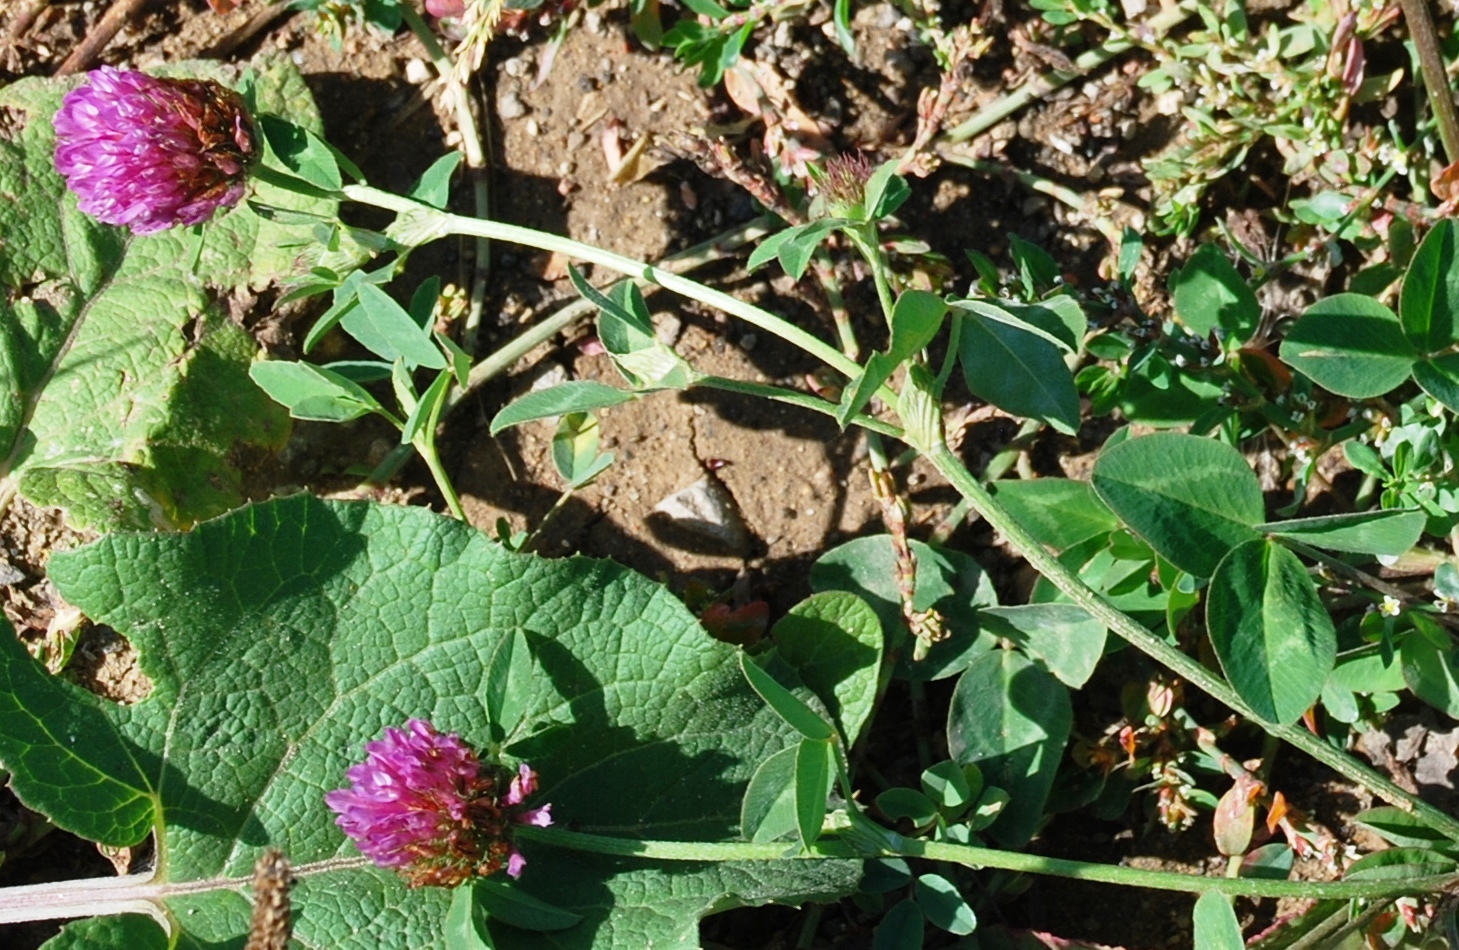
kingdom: Plantae
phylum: Tracheophyta
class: Magnoliopsida
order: Fabales
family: Fabaceae
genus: Trifolium
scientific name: Trifolium pratense
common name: Red clover
